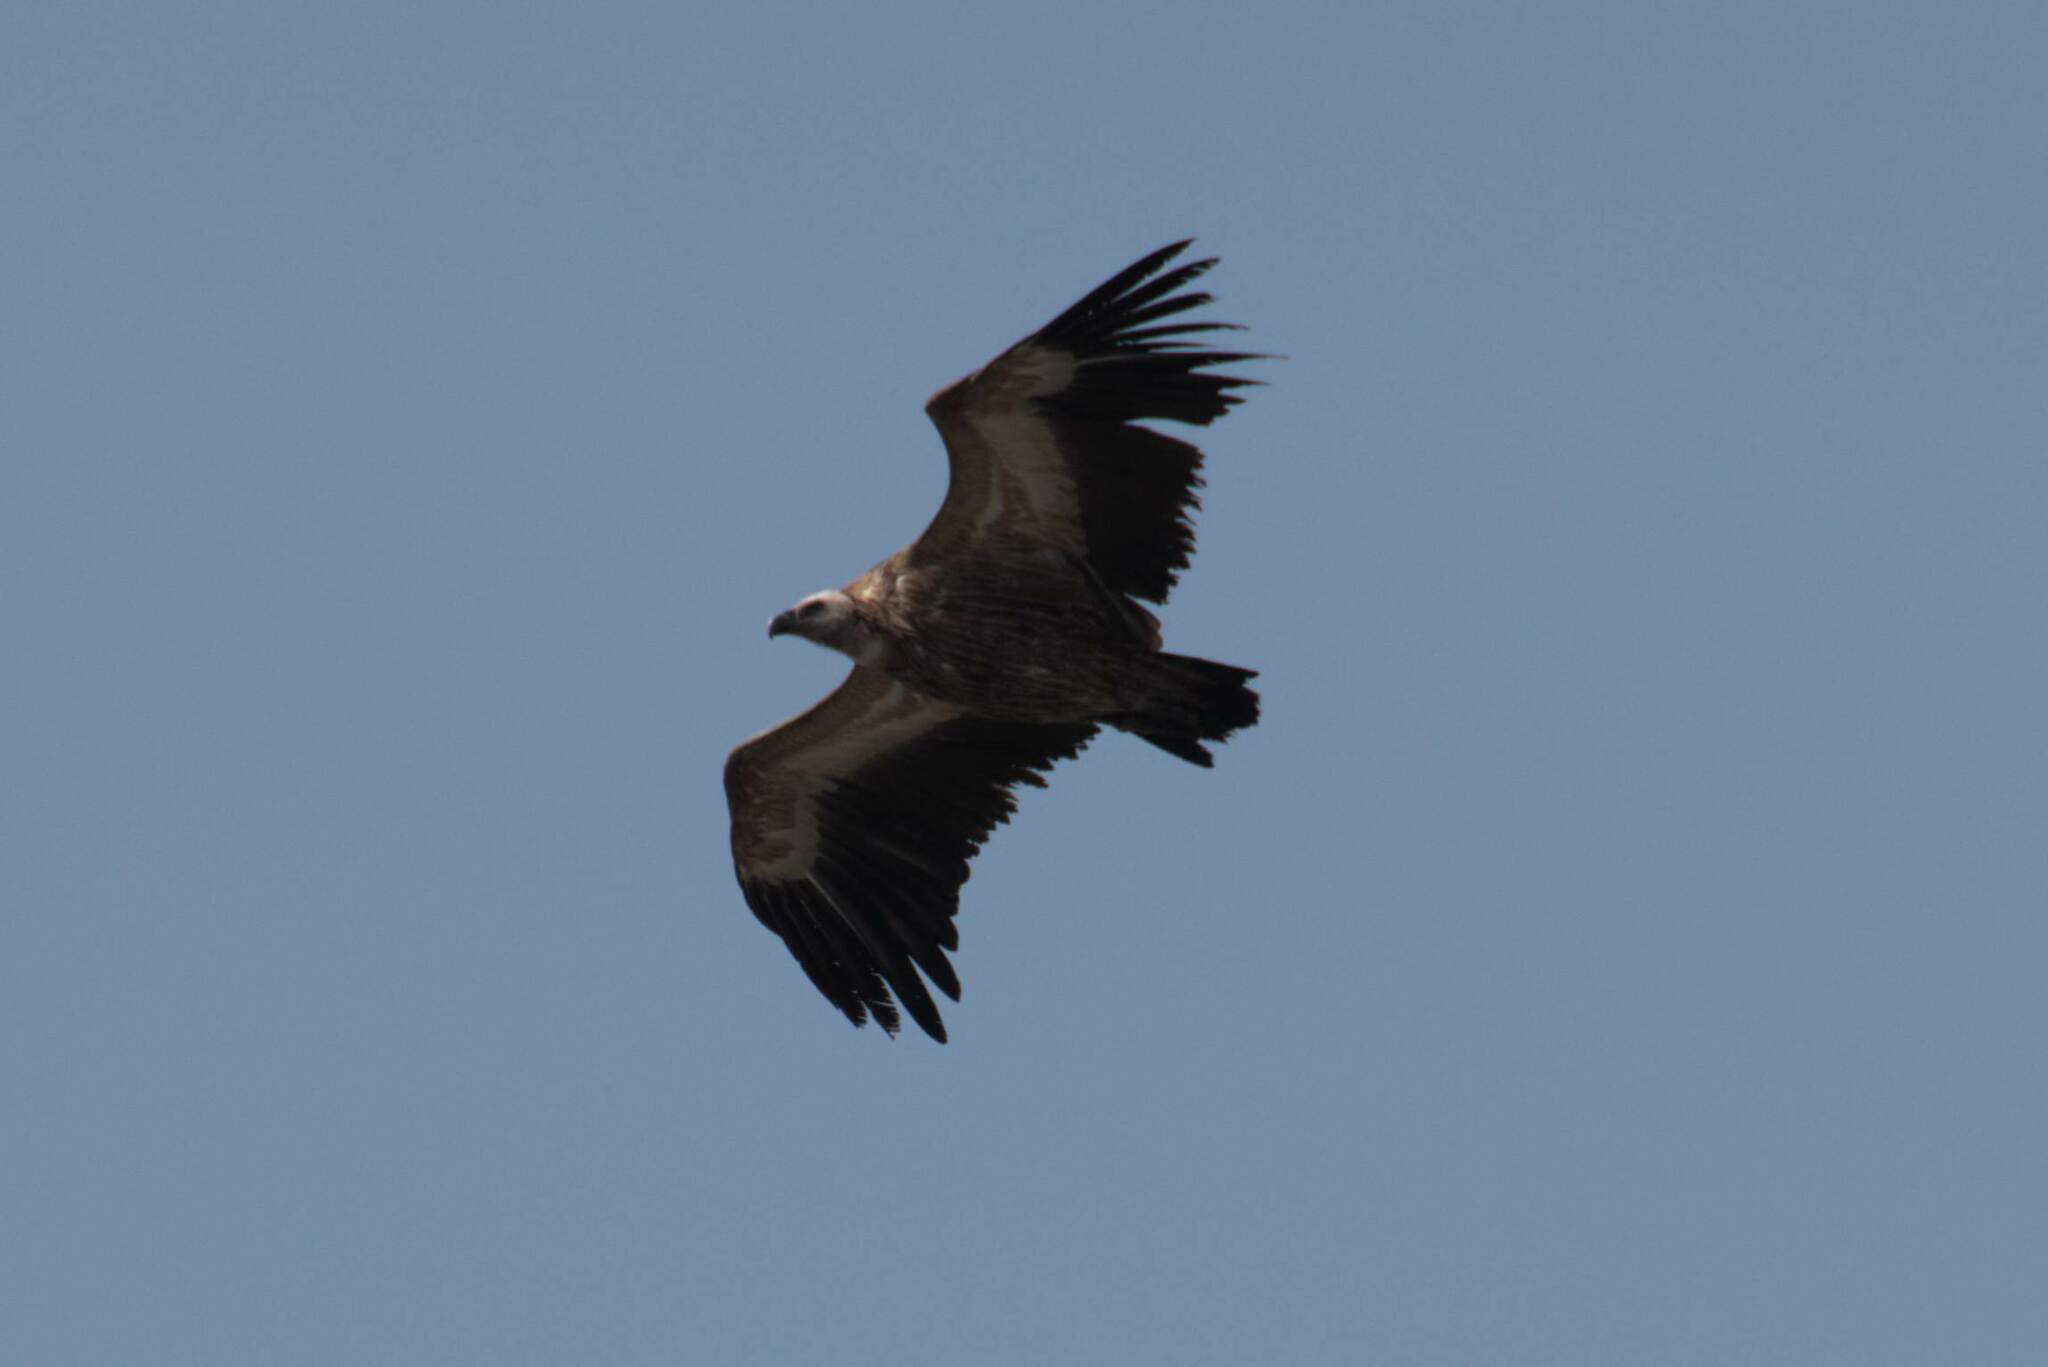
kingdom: Animalia
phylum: Chordata
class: Aves
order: Accipitriformes
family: Accipitridae
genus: Gyps
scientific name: Gyps fulvus
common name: Griffon vulture
